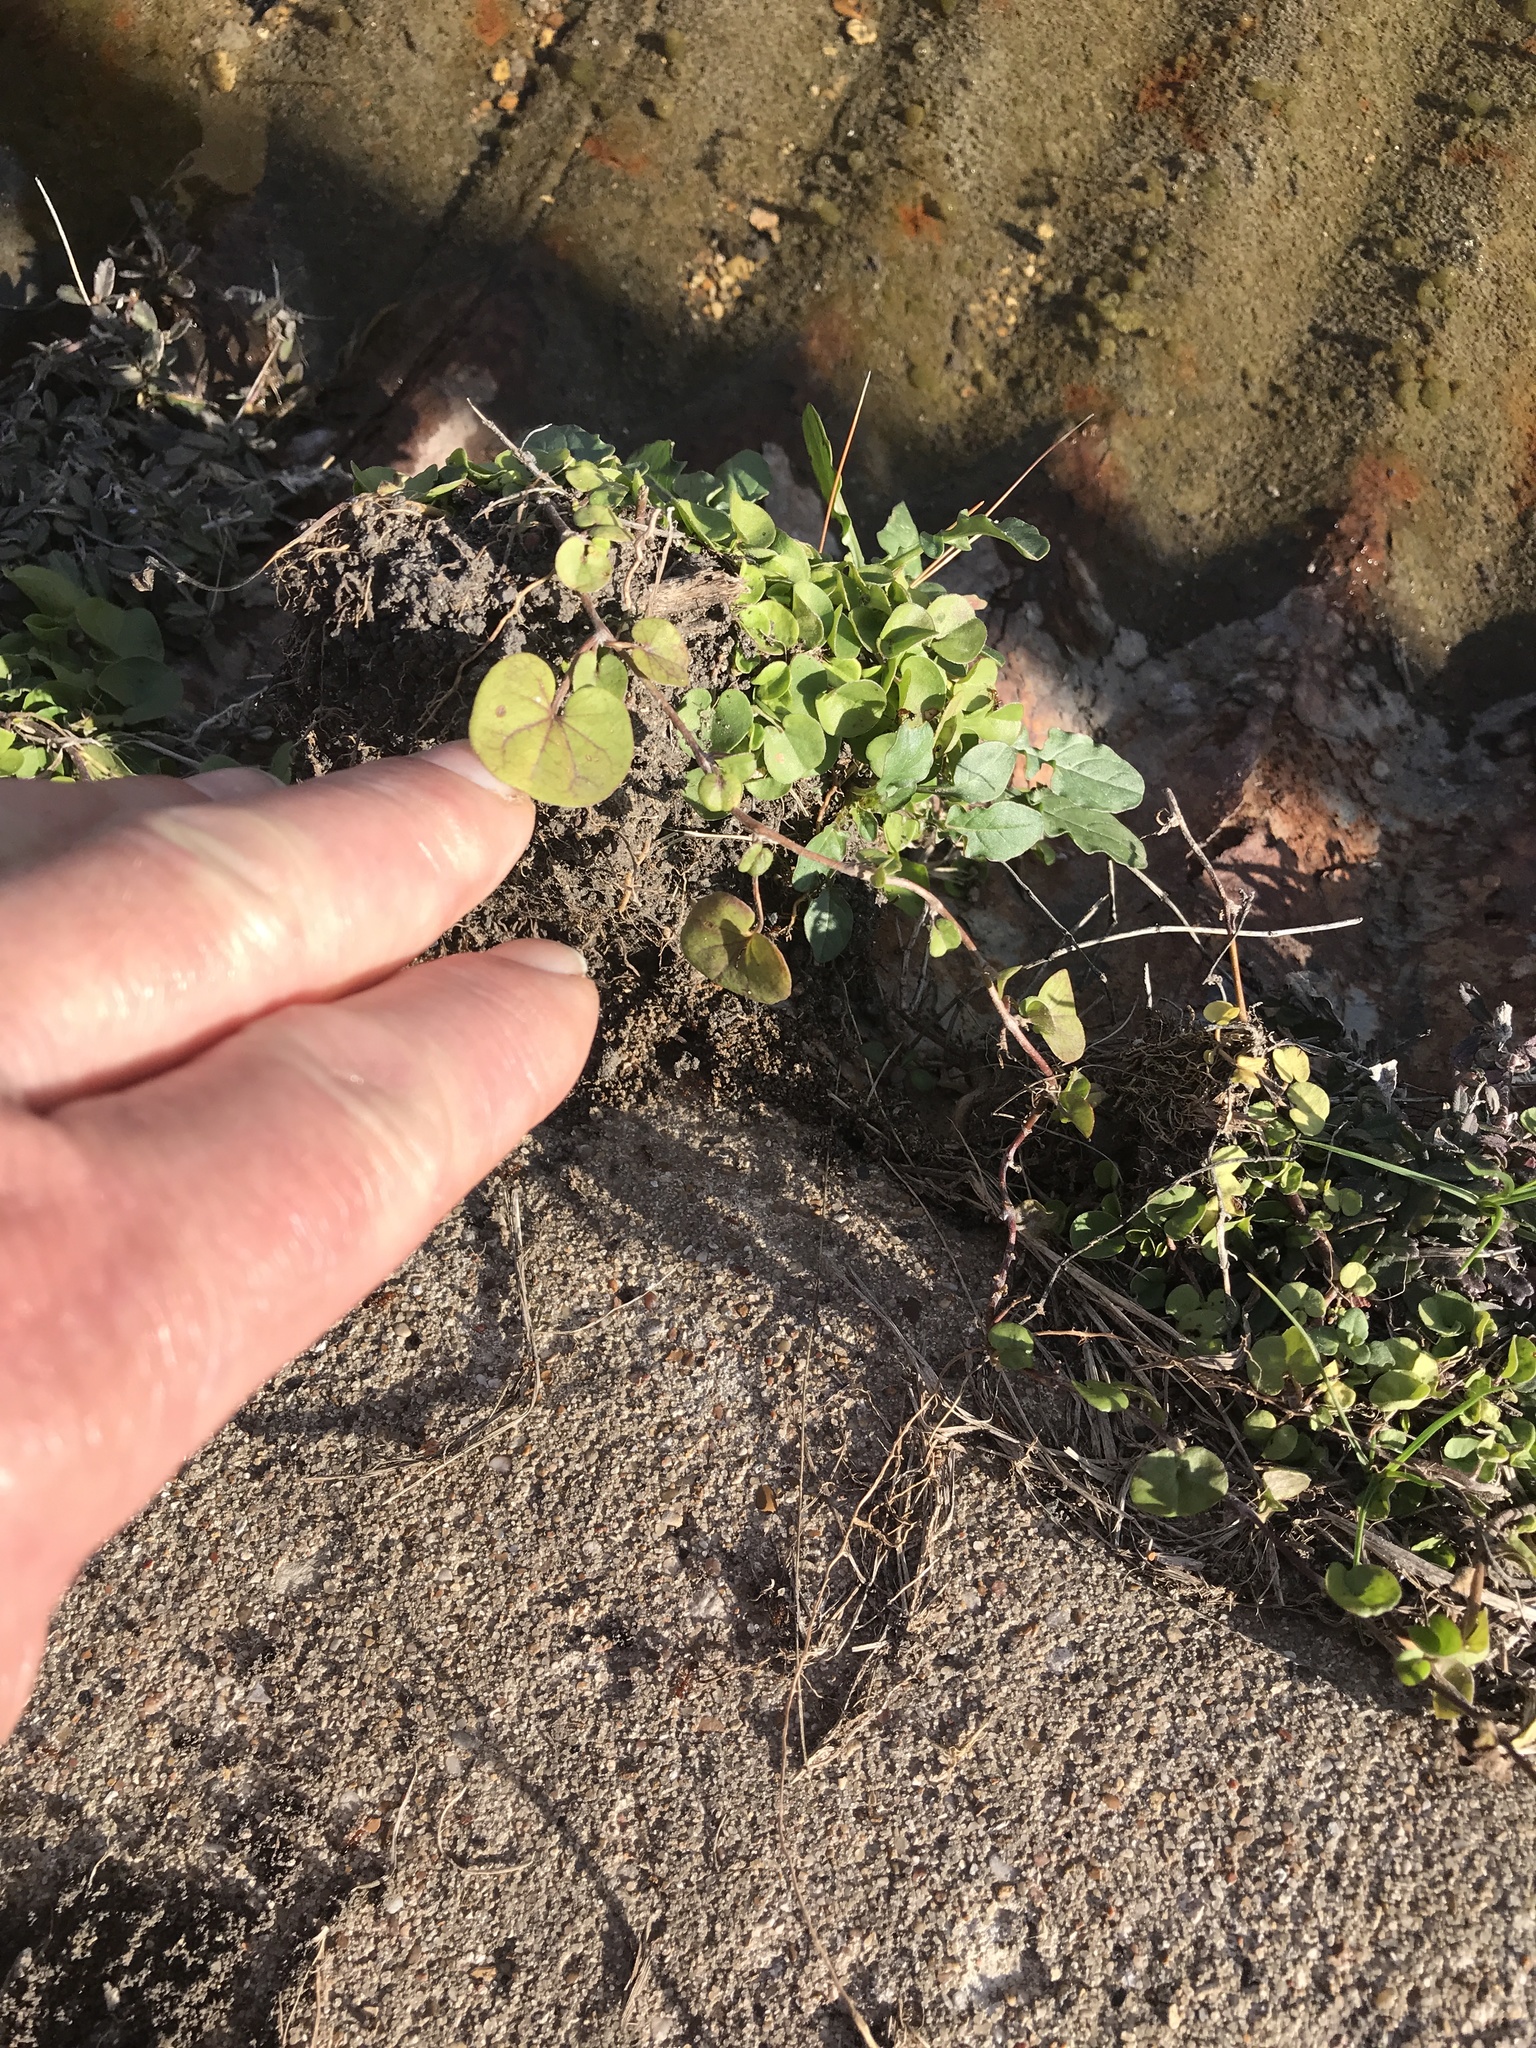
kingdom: Plantae
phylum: Tracheophyta
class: Magnoliopsida
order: Solanales
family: Convolvulaceae
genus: Dichondra
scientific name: Dichondra carolinensis
